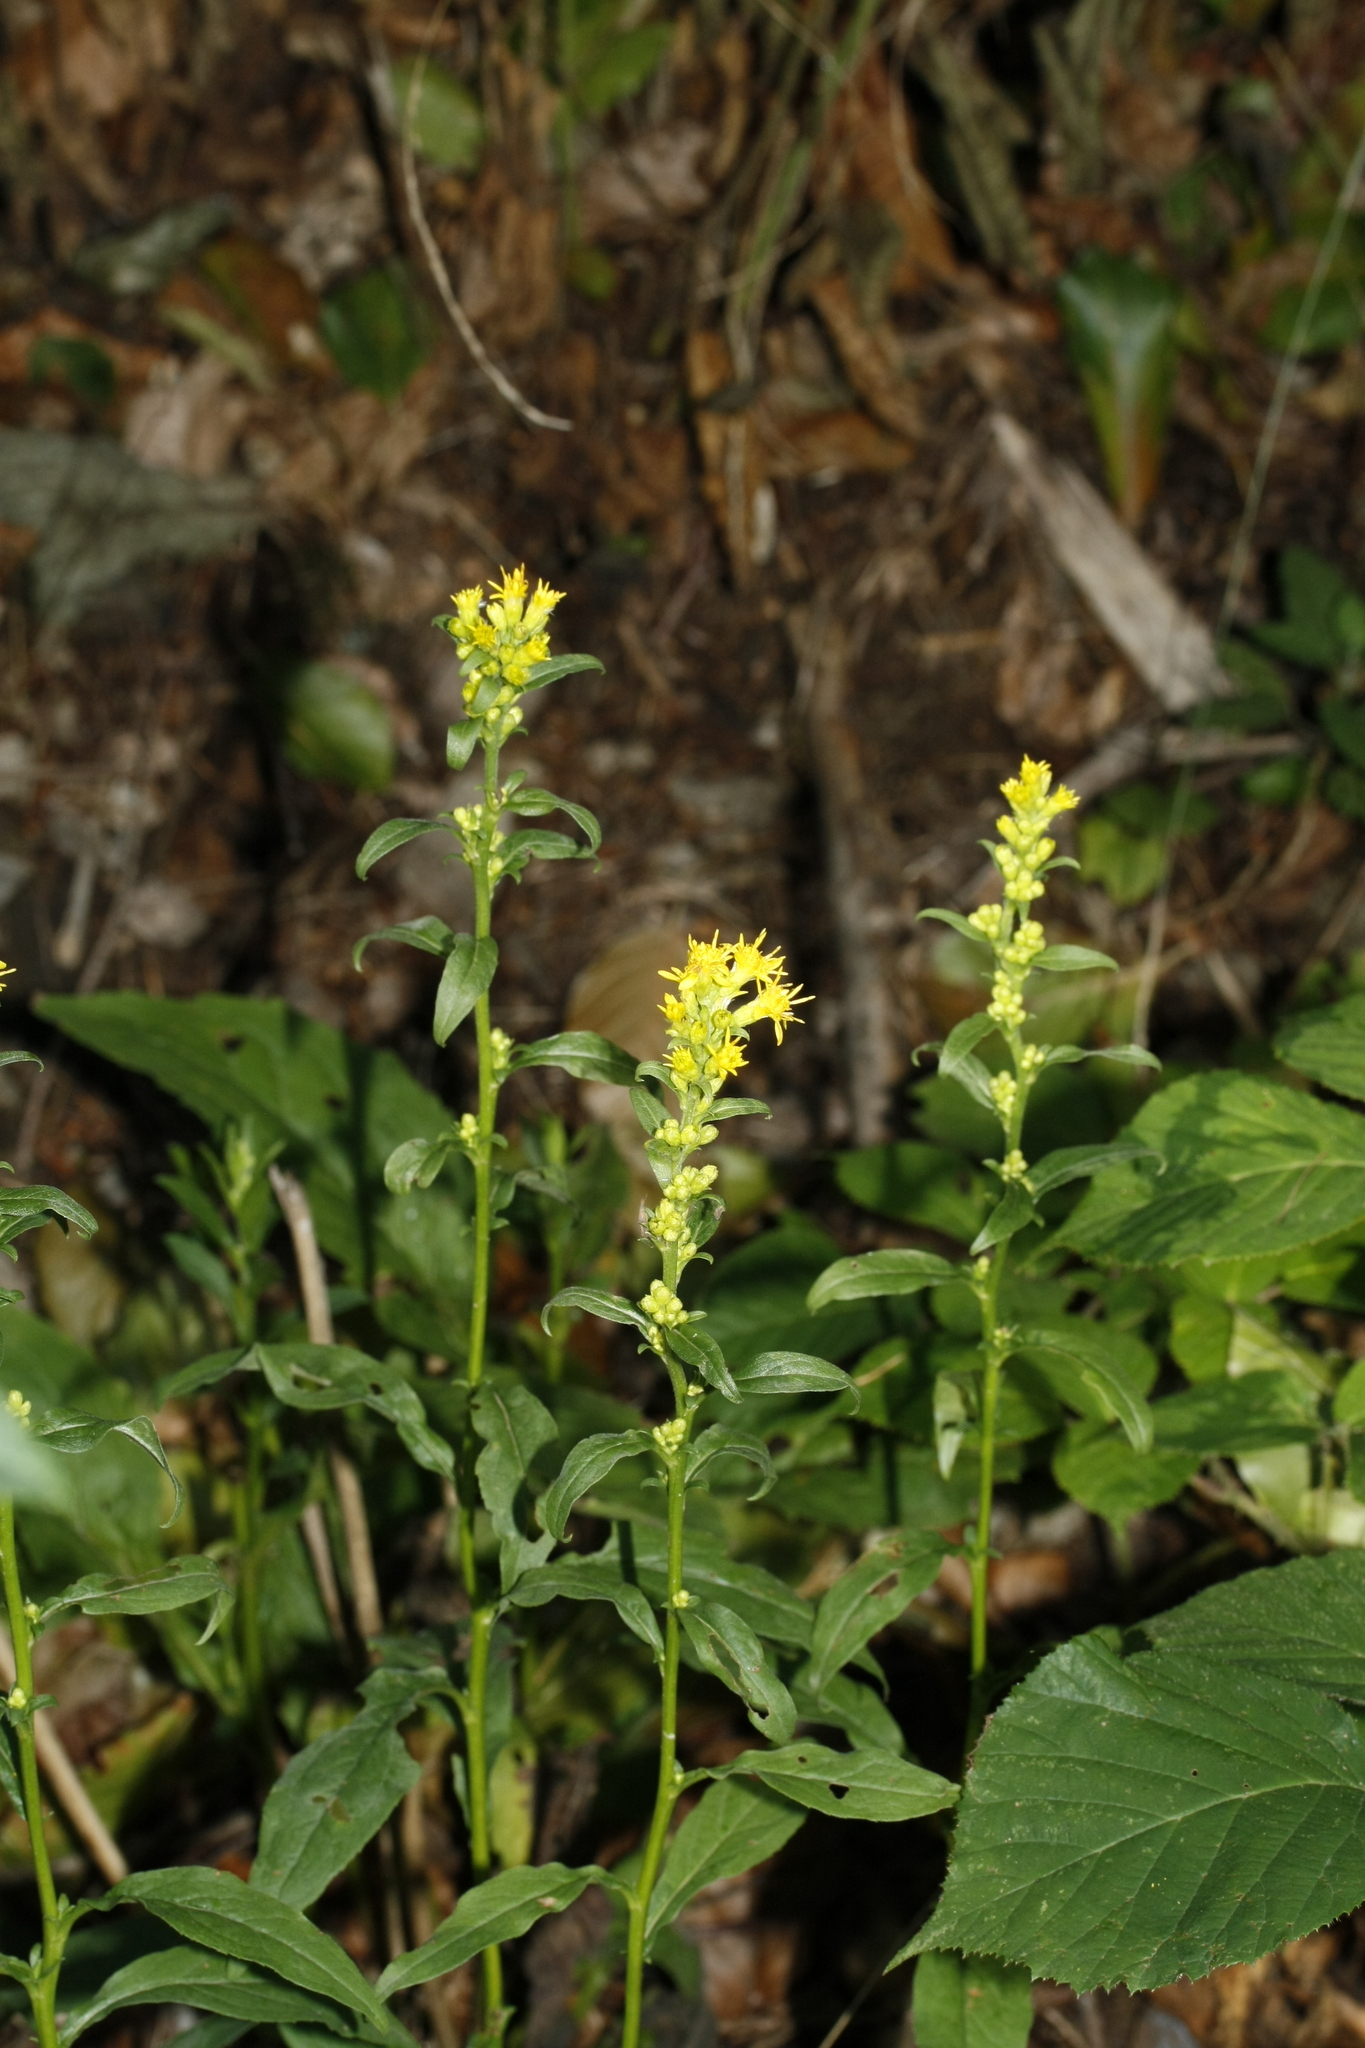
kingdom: Plantae
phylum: Tracheophyta
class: Magnoliopsida
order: Asterales
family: Asteraceae
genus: Solidago
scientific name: Solidago virgaurea
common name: Goldenrod
